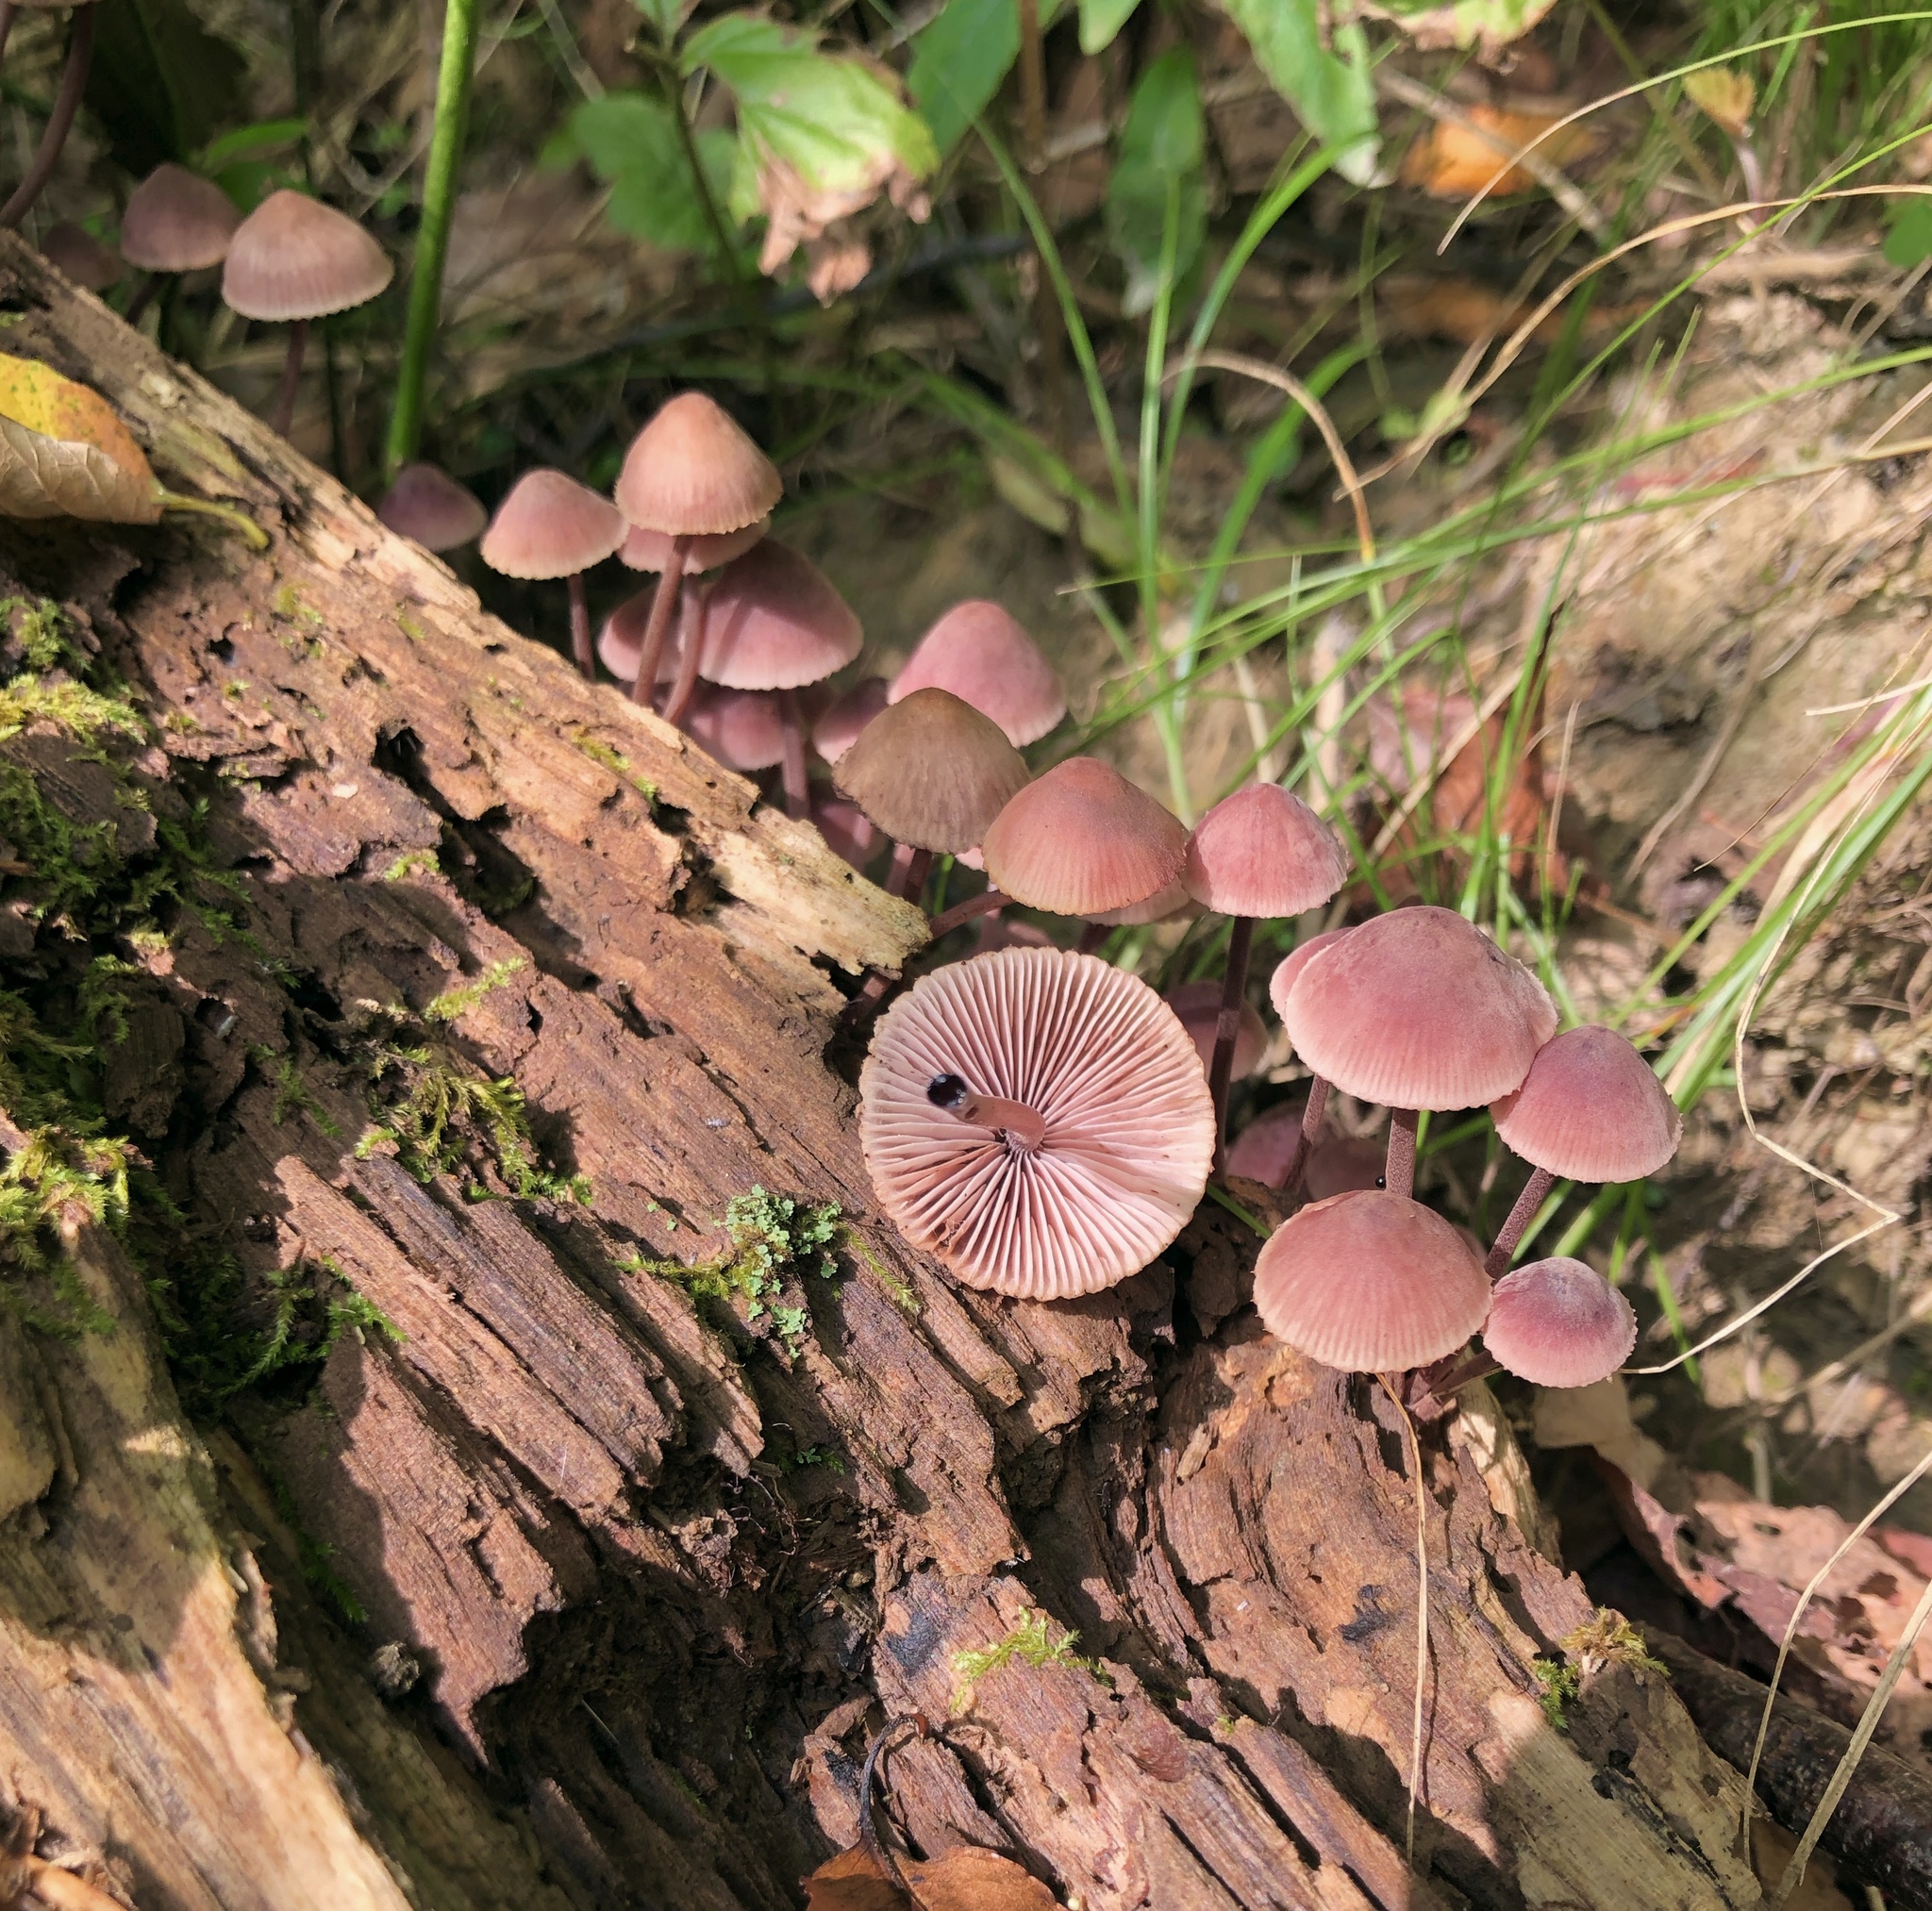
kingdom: Fungi
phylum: Basidiomycota
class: Agaricomycetes
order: Agaricales
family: Mycenaceae
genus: Mycena
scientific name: Mycena haematopus
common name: Burgundydrop bonnet
